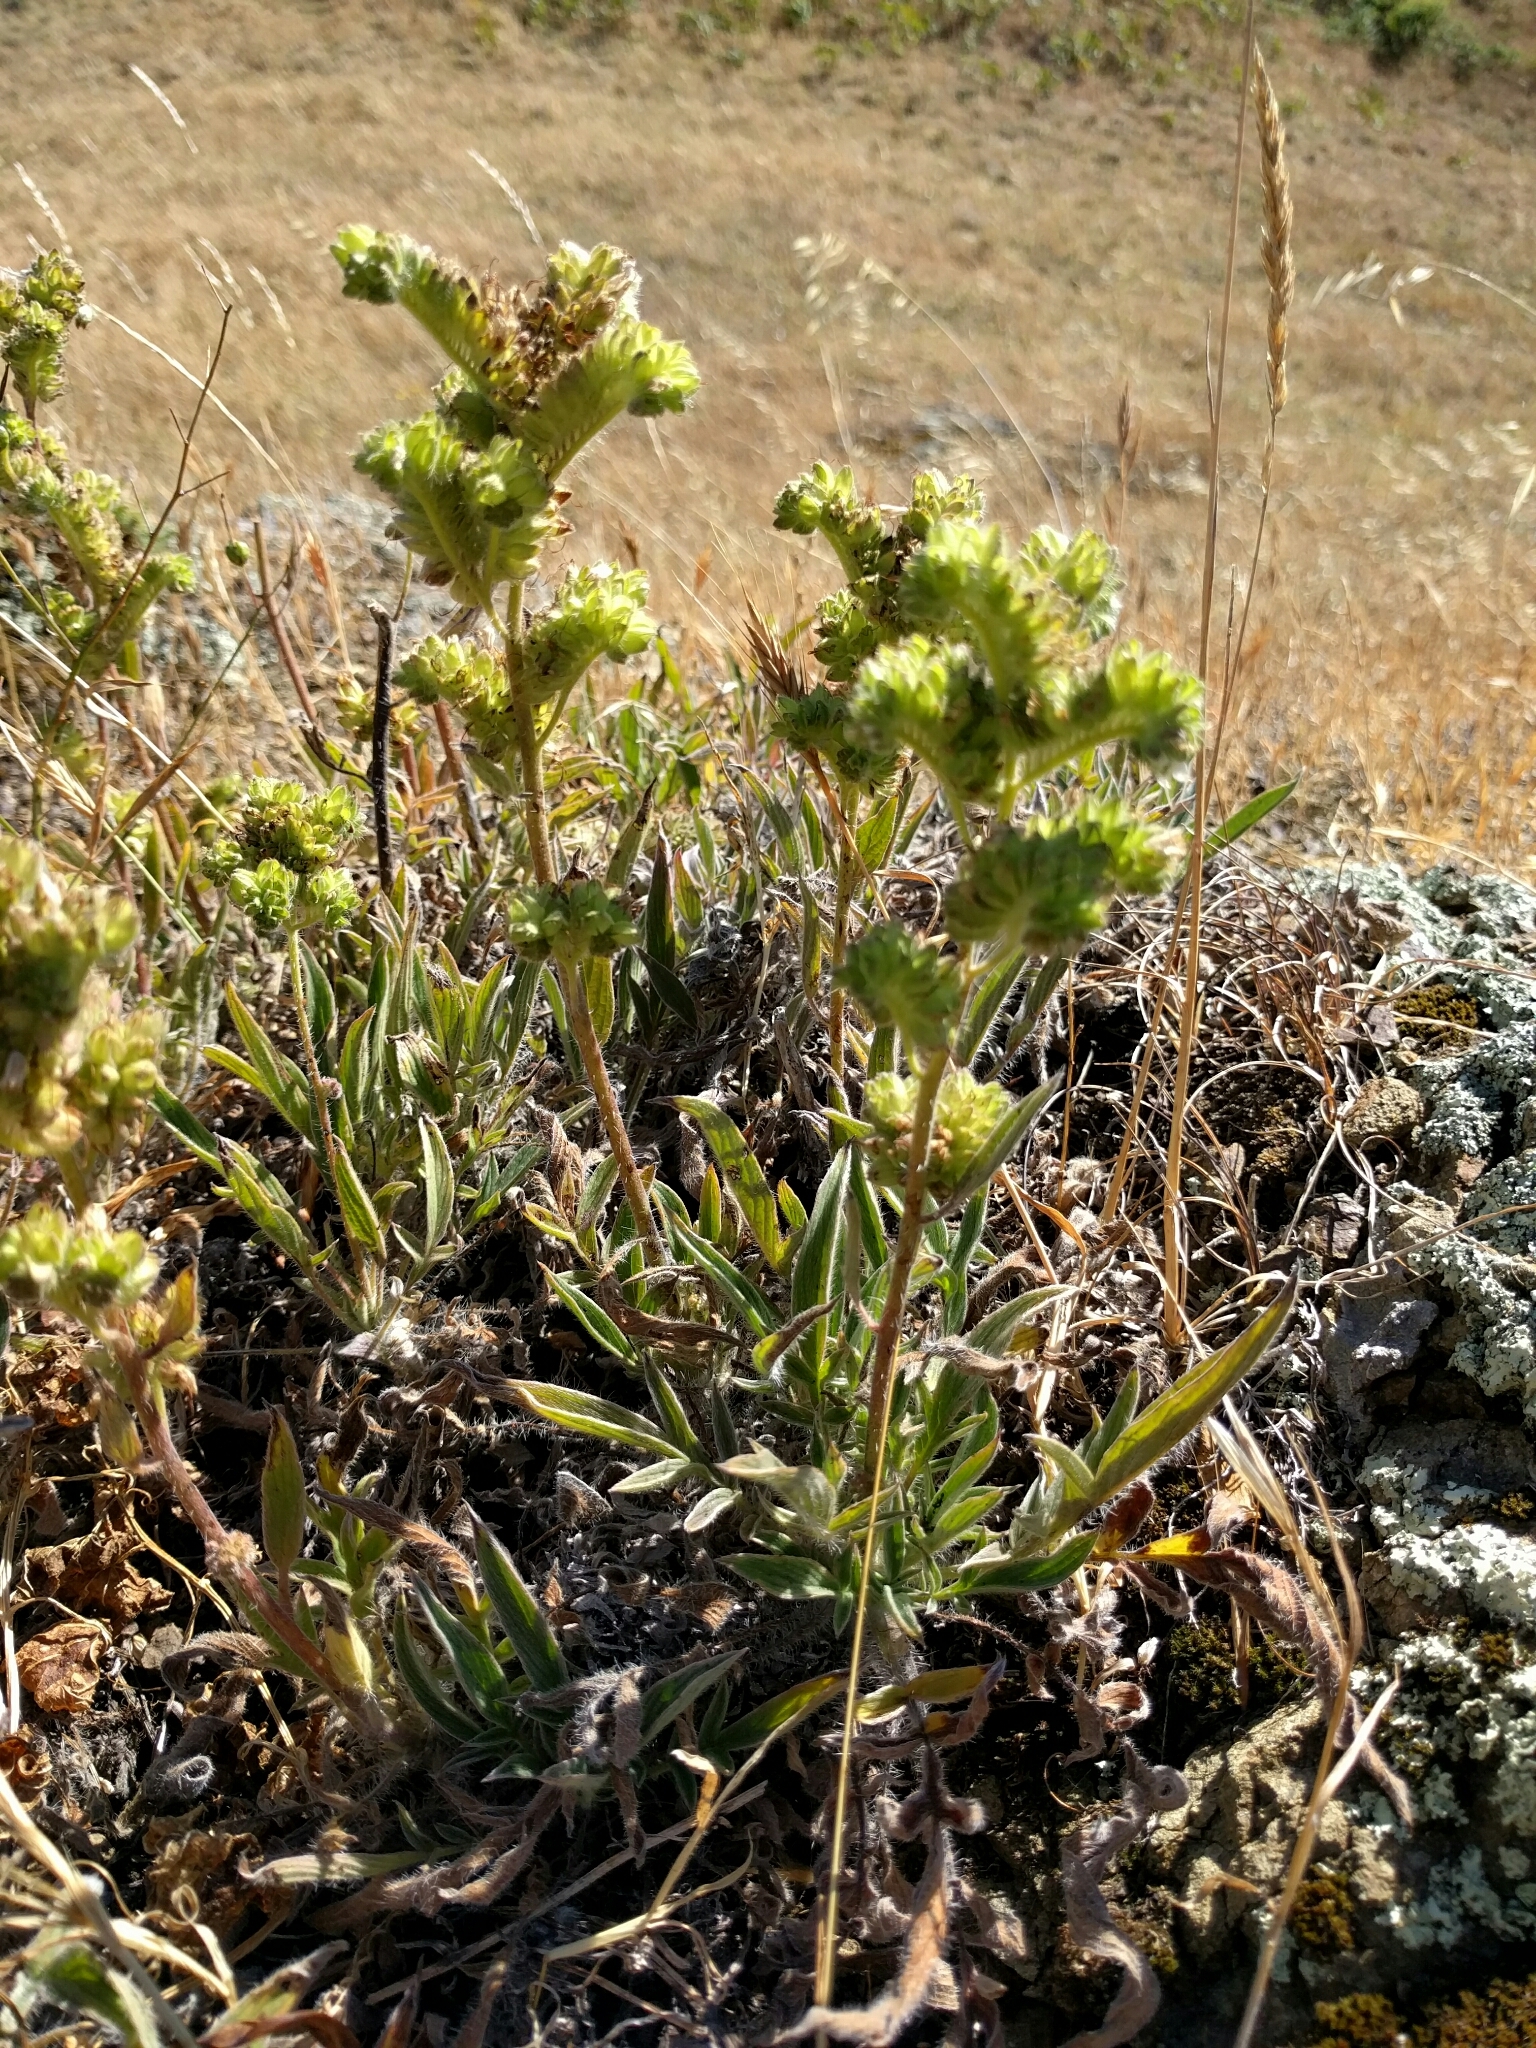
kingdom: Plantae
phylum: Tracheophyta
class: Magnoliopsida
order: Boraginales
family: Hydrophyllaceae
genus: Phacelia
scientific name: Phacelia imbricata
